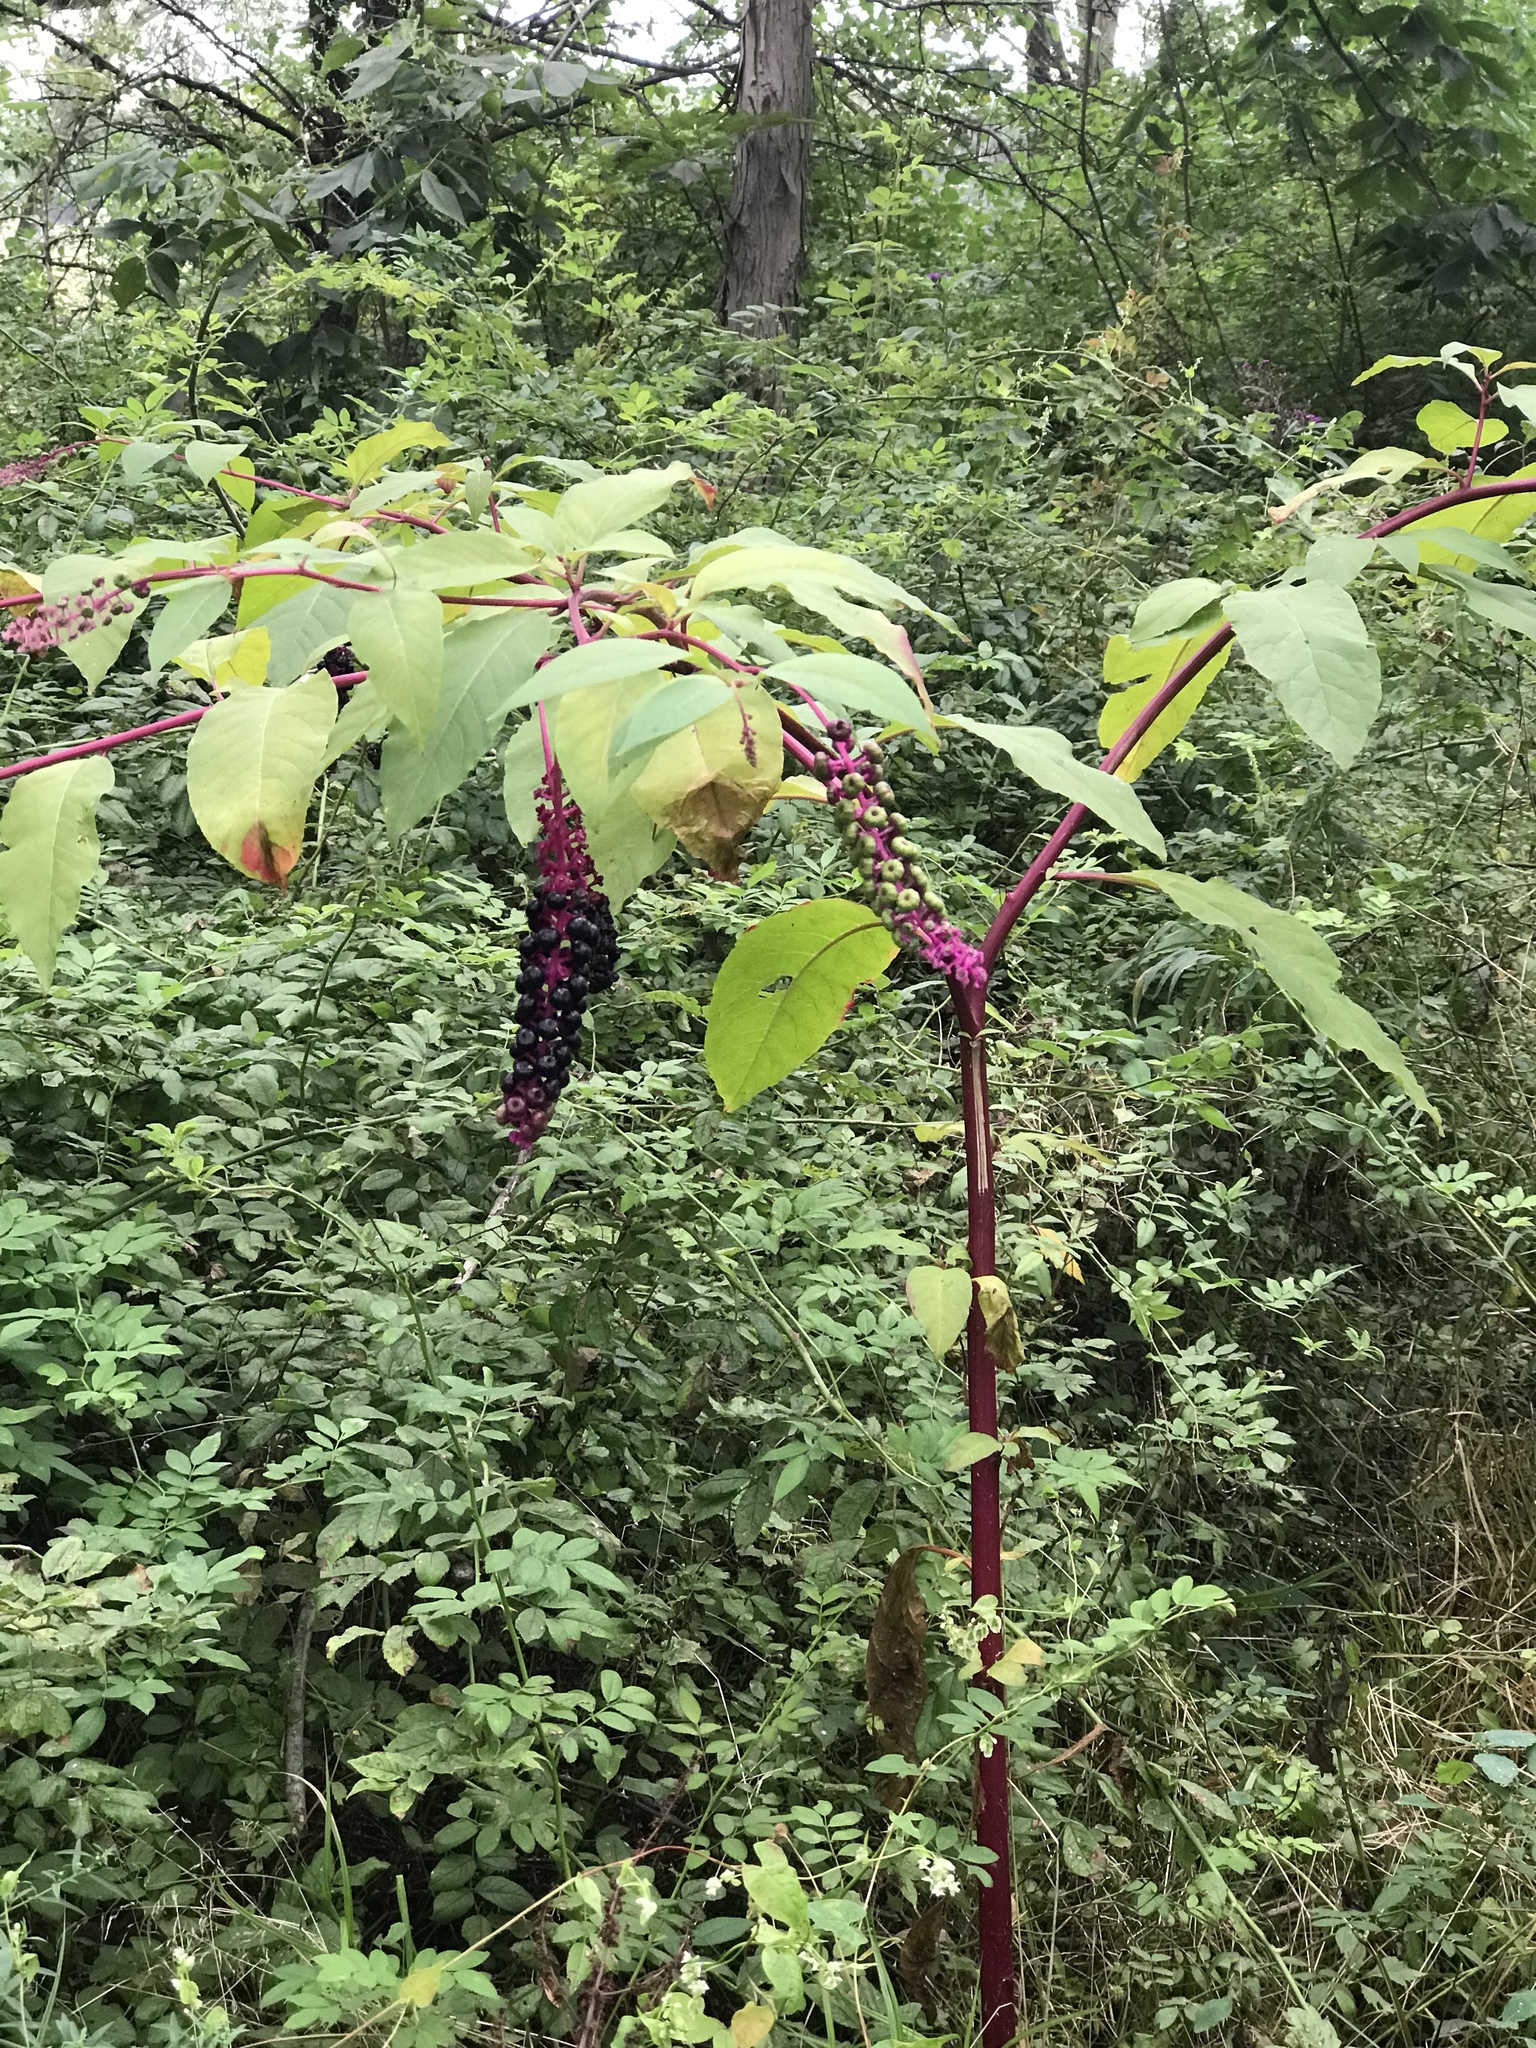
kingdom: Plantae
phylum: Tracheophyta
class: Magnoliopsida
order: Caryophyllales
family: Phytolaccaceae
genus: Phytolacca
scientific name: Phytolacca americana
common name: American pokeweed
